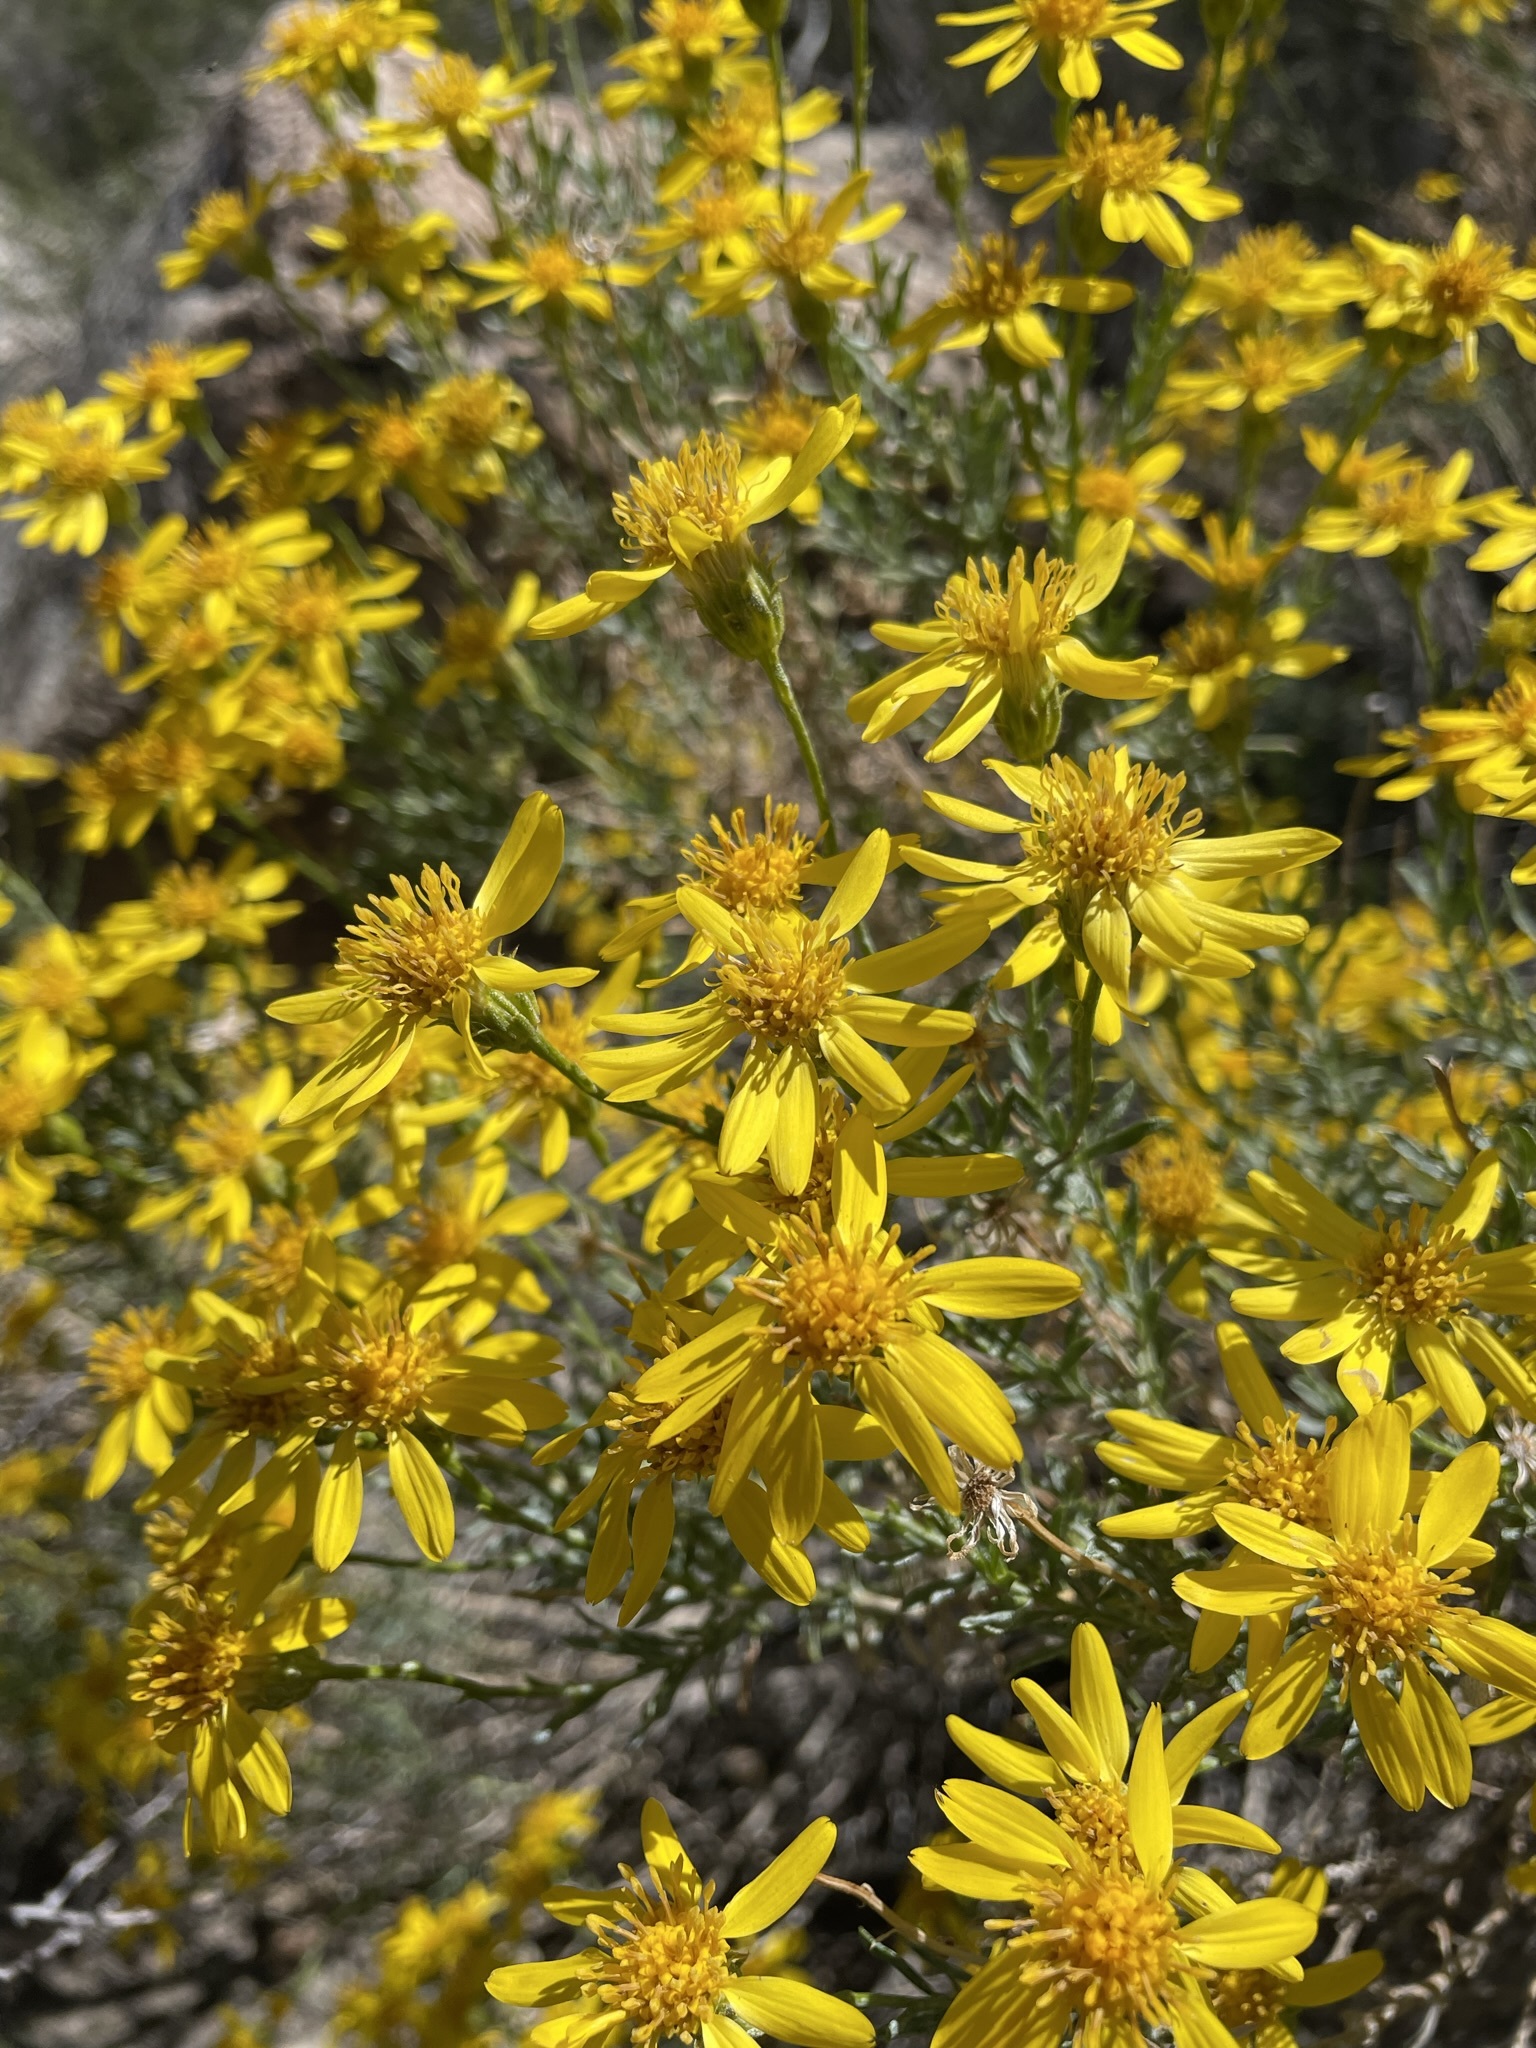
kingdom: Plantae
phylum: Tracheophyta
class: Magnoliopsida
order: Asterales
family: Asteraceae
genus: Ericameria
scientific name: Ericameria linearifolia
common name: Interior goldenbush
